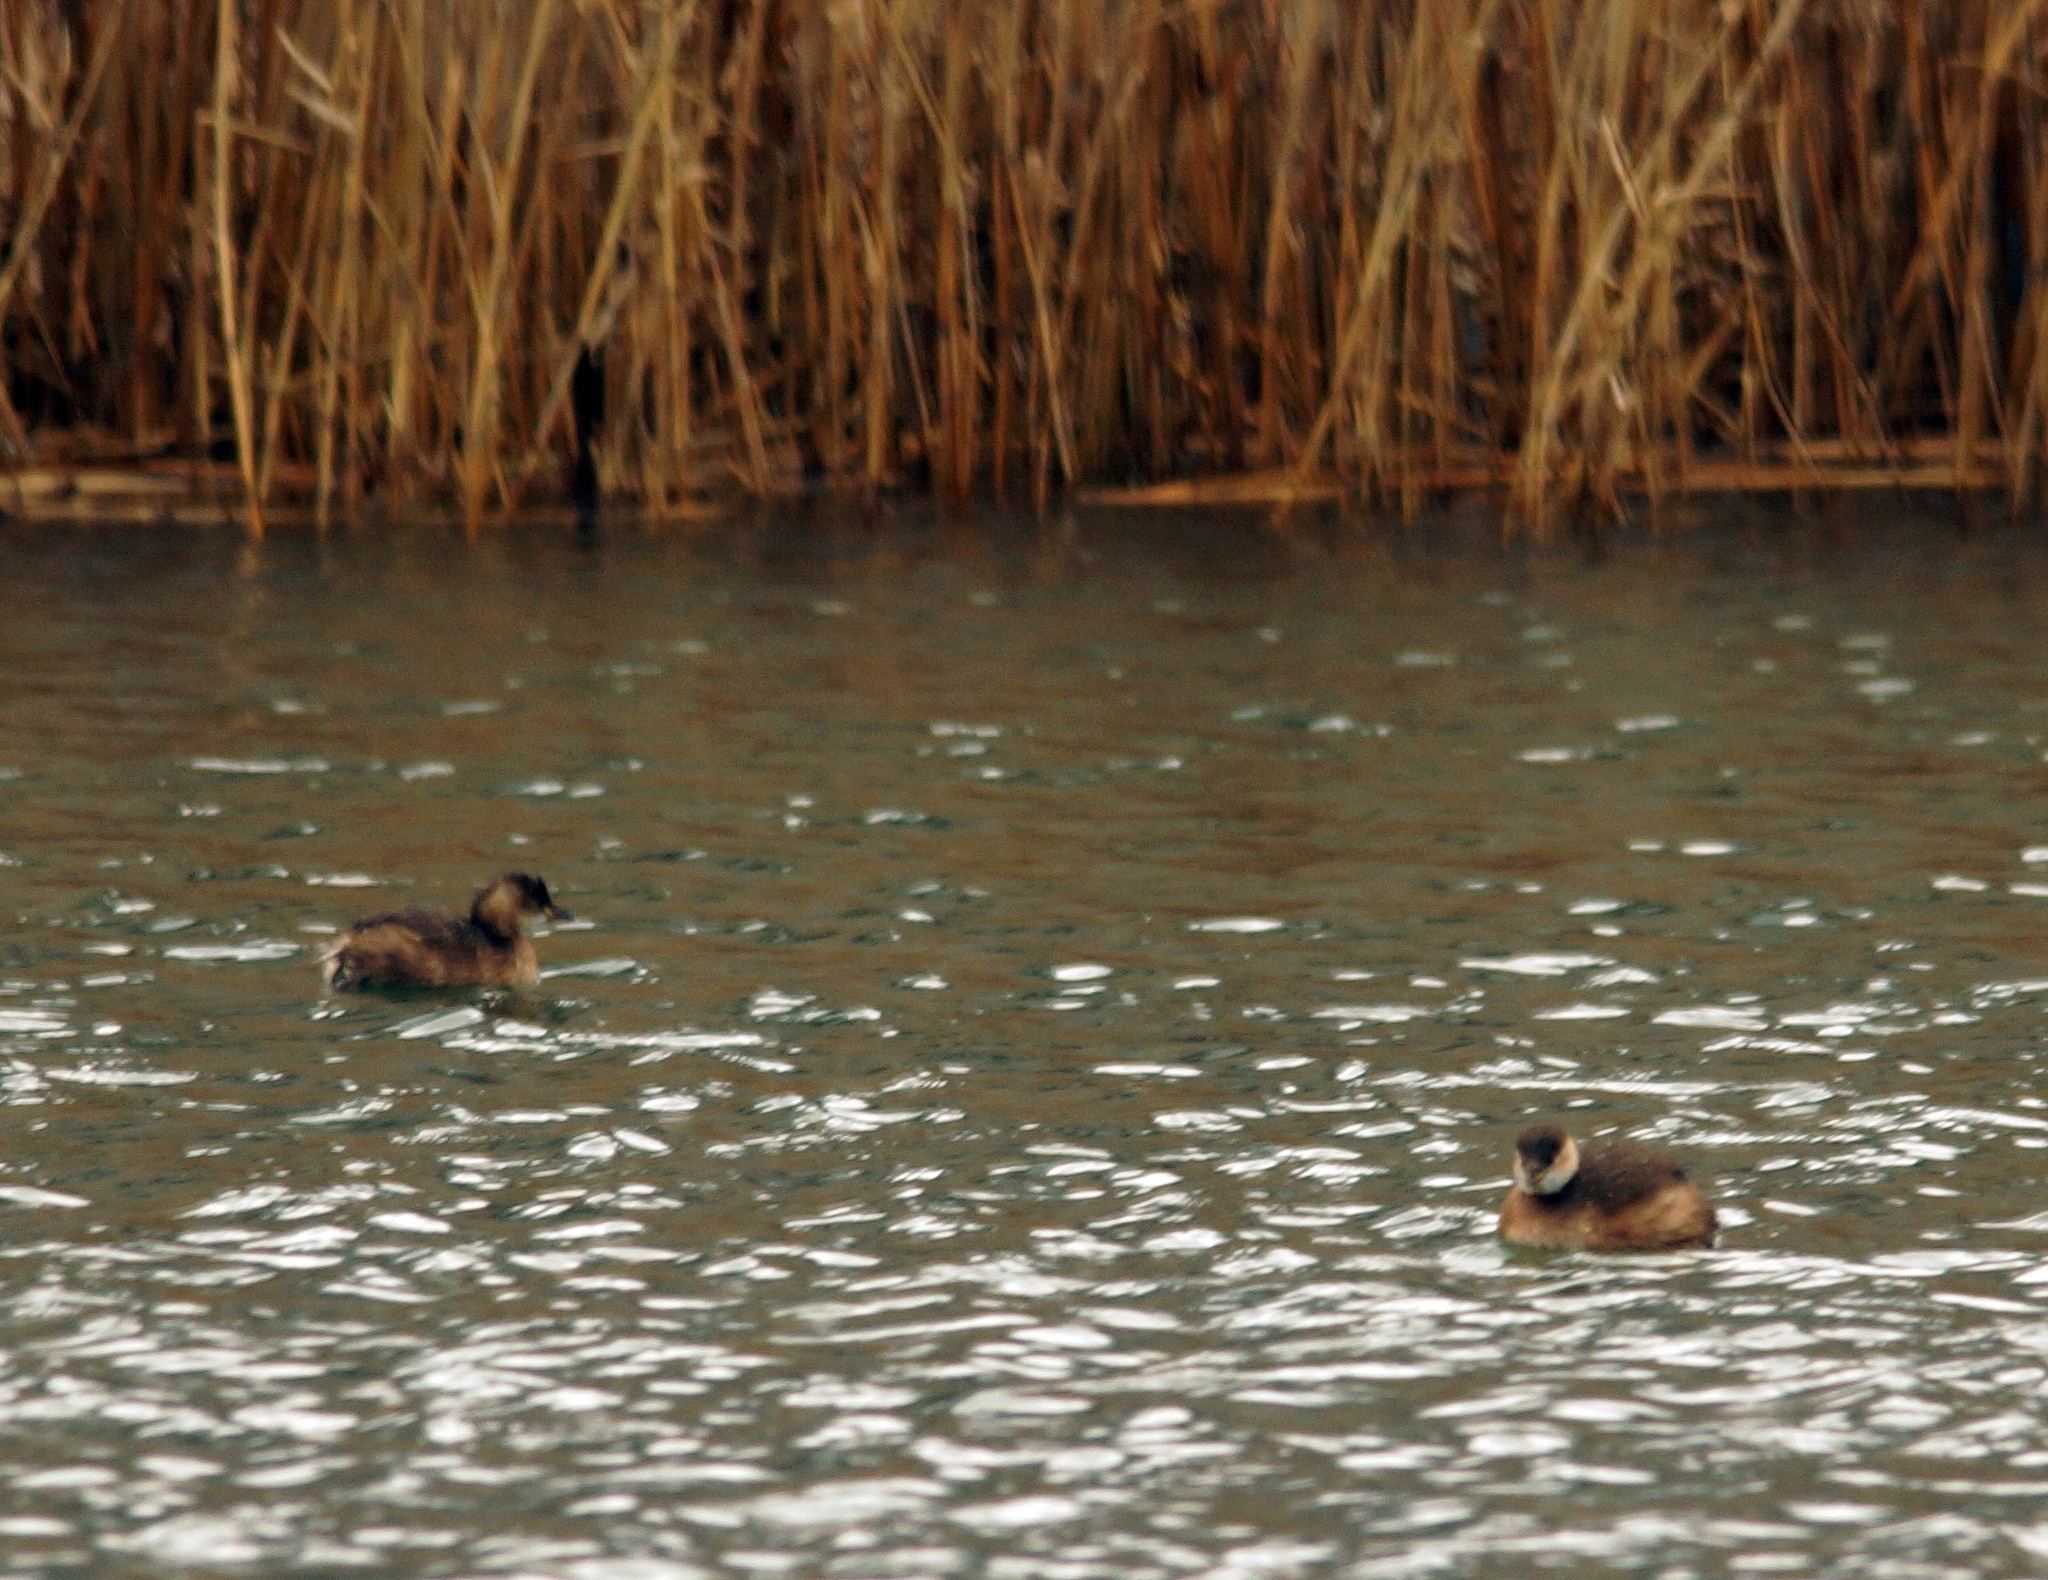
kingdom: Animalia
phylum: Chordata
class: Aves
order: Podicipediformes
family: Podicipedidae
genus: Tachybaptus
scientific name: Tachybaptus ruficollis
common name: Little grebe
